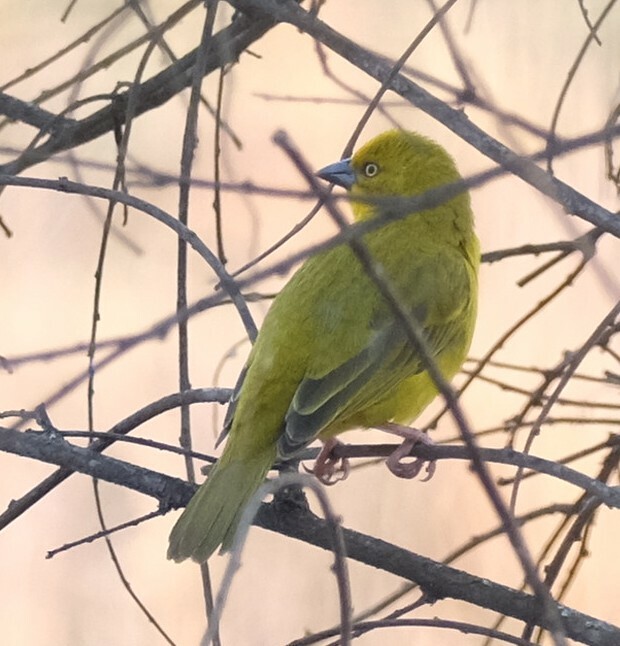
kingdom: Animalia
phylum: Chordata
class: Aves
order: Passeriformes
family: Ploceidae
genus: Ploceus
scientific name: Ploceus xanthops
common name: Holub's golden weaver
